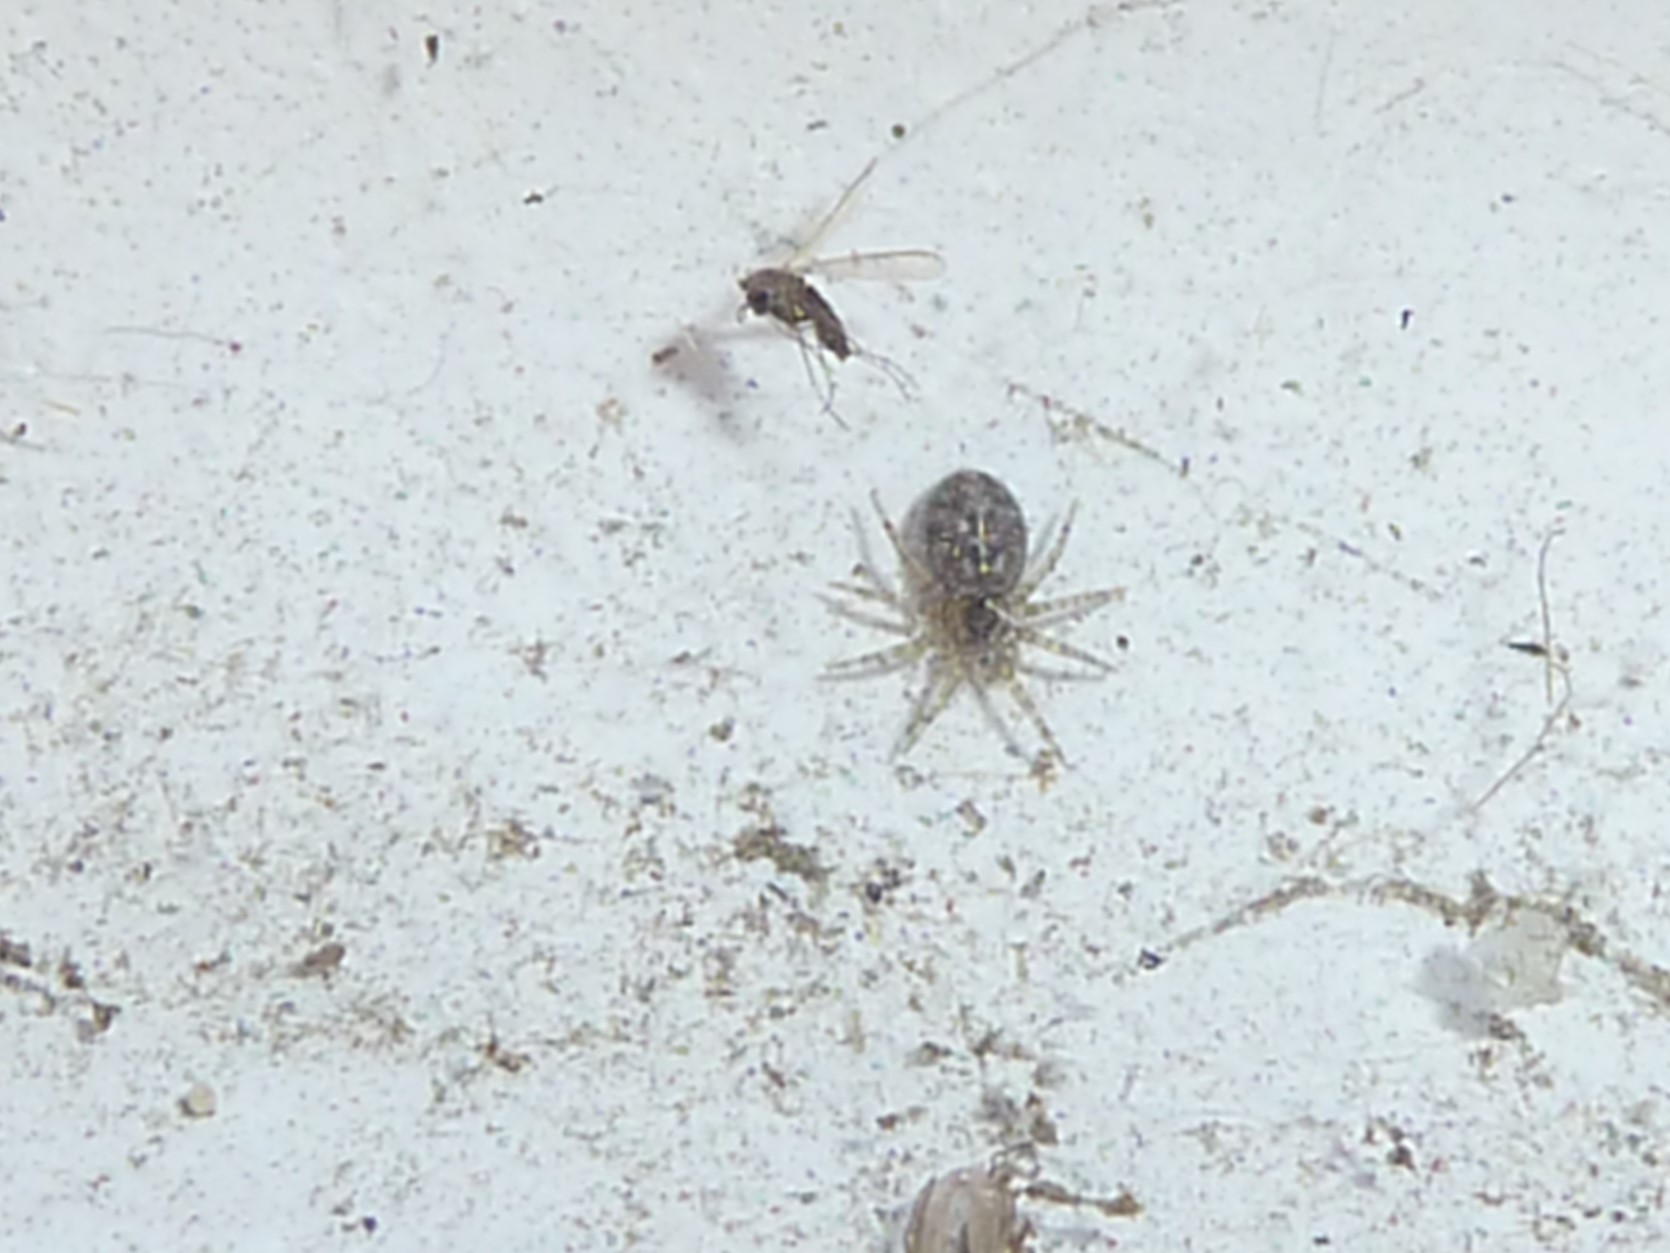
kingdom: Animalia
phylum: Arthropoda
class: Arachnida
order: Araneae
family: Oecobiidae
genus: Oecobius
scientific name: Oecobius navus
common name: Flatmesh weaver
